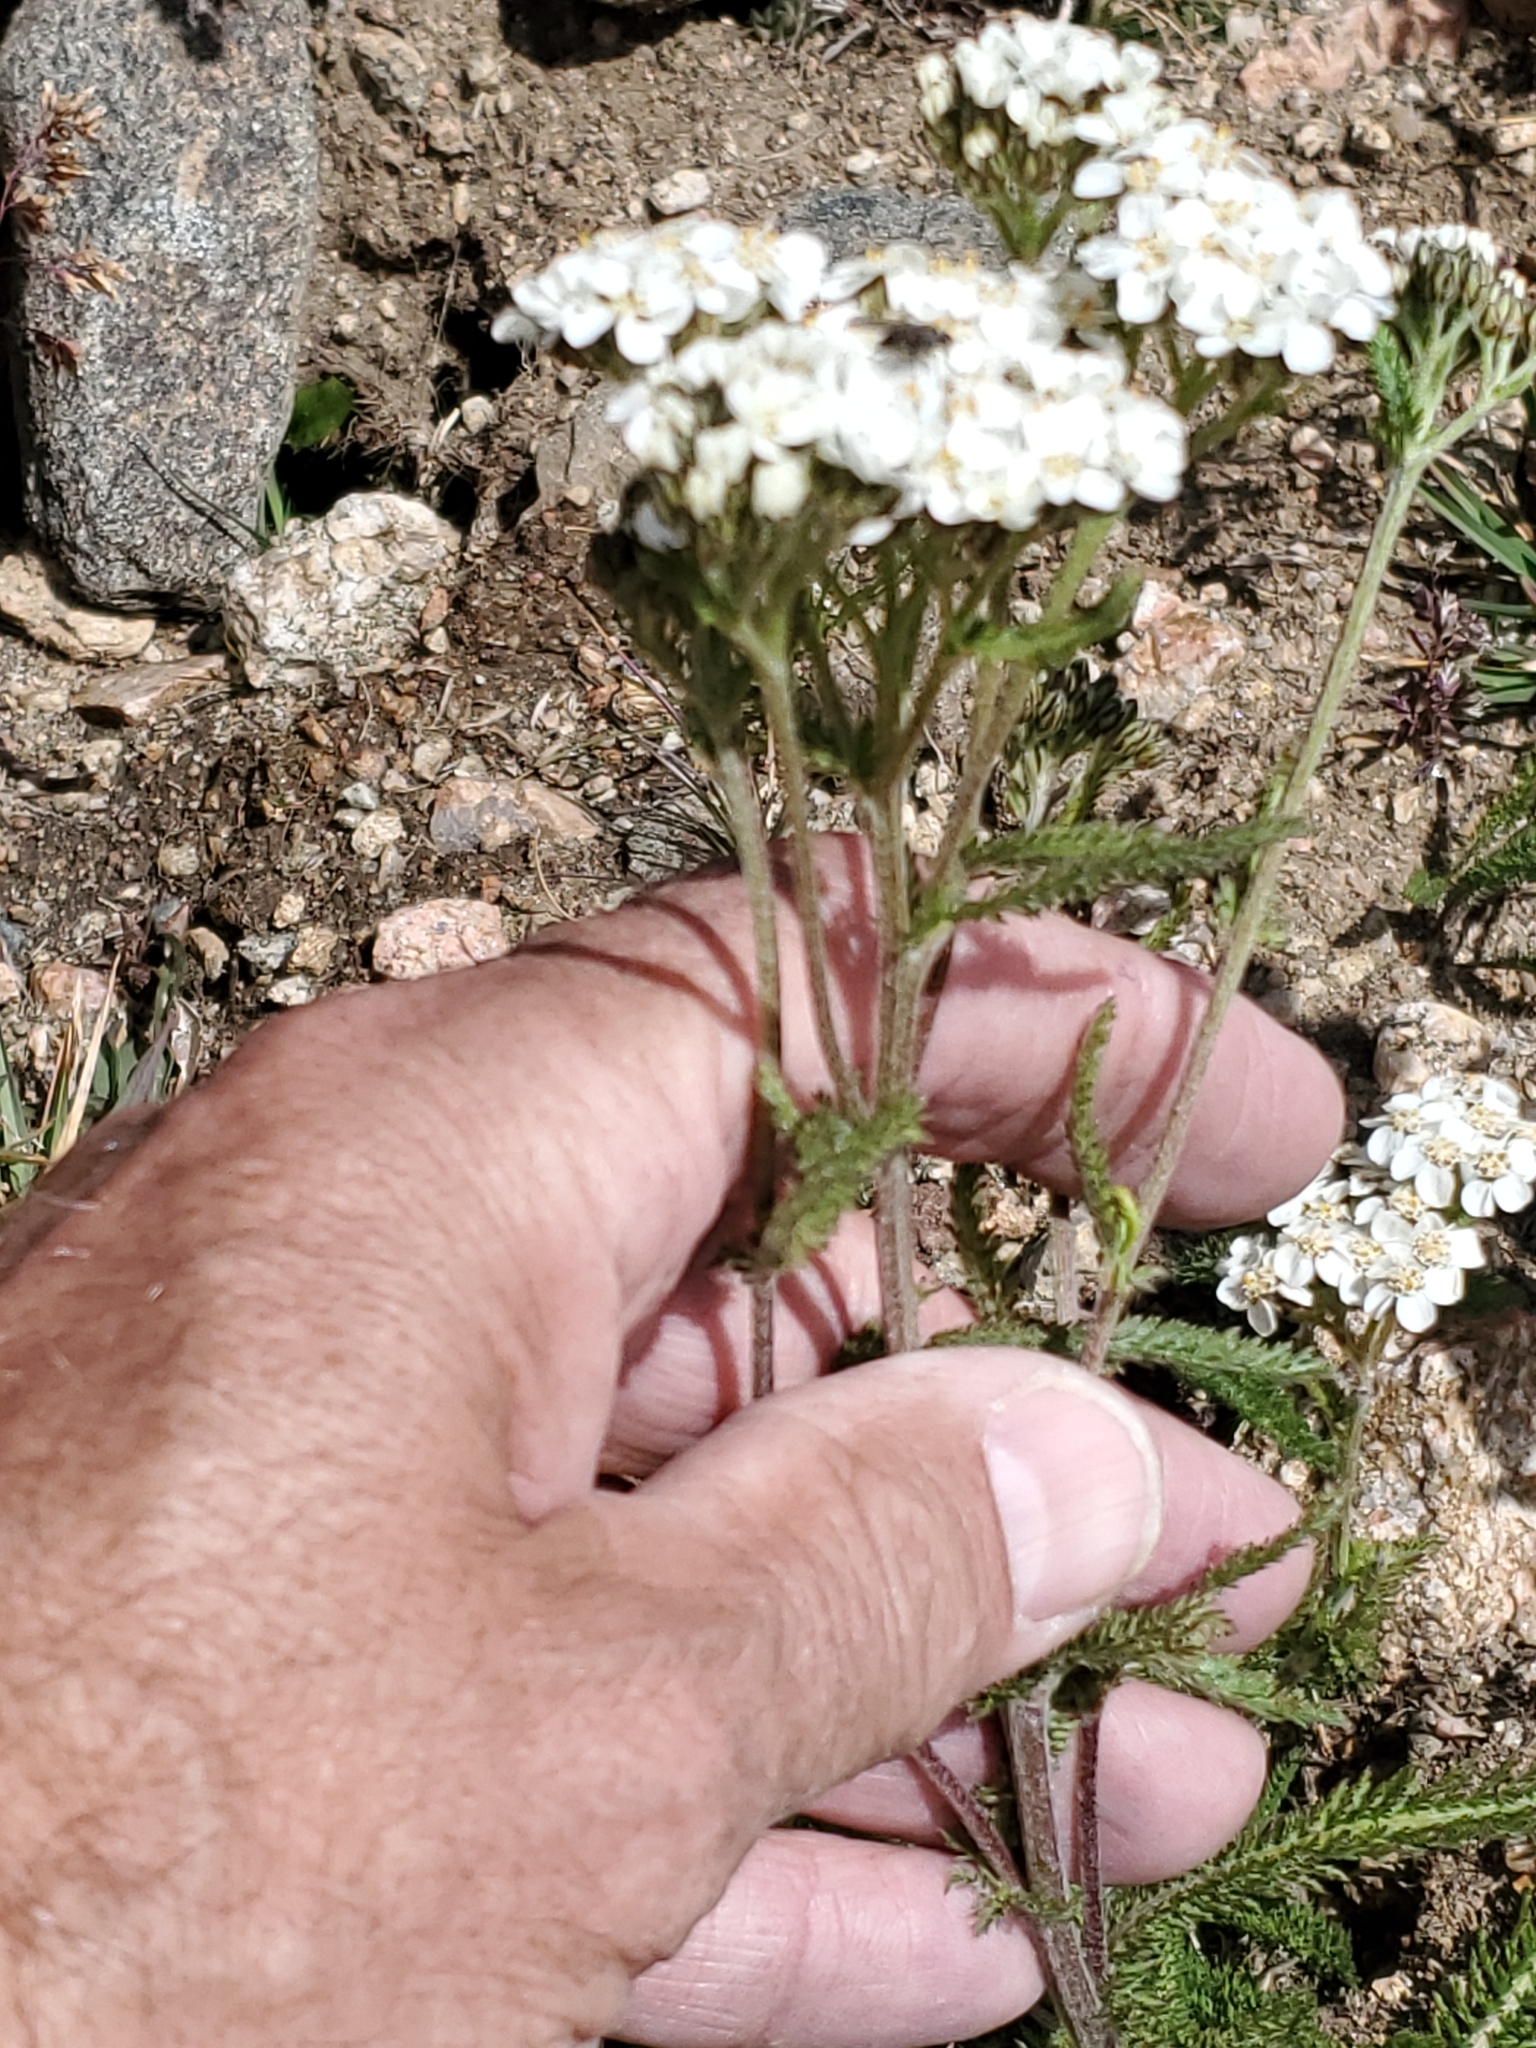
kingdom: Plantae
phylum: Tracheophyta
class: Magnoliopsida
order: Asterales
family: Asteraceae
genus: Achillea
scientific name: Achillea millefolium
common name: Yarrow
